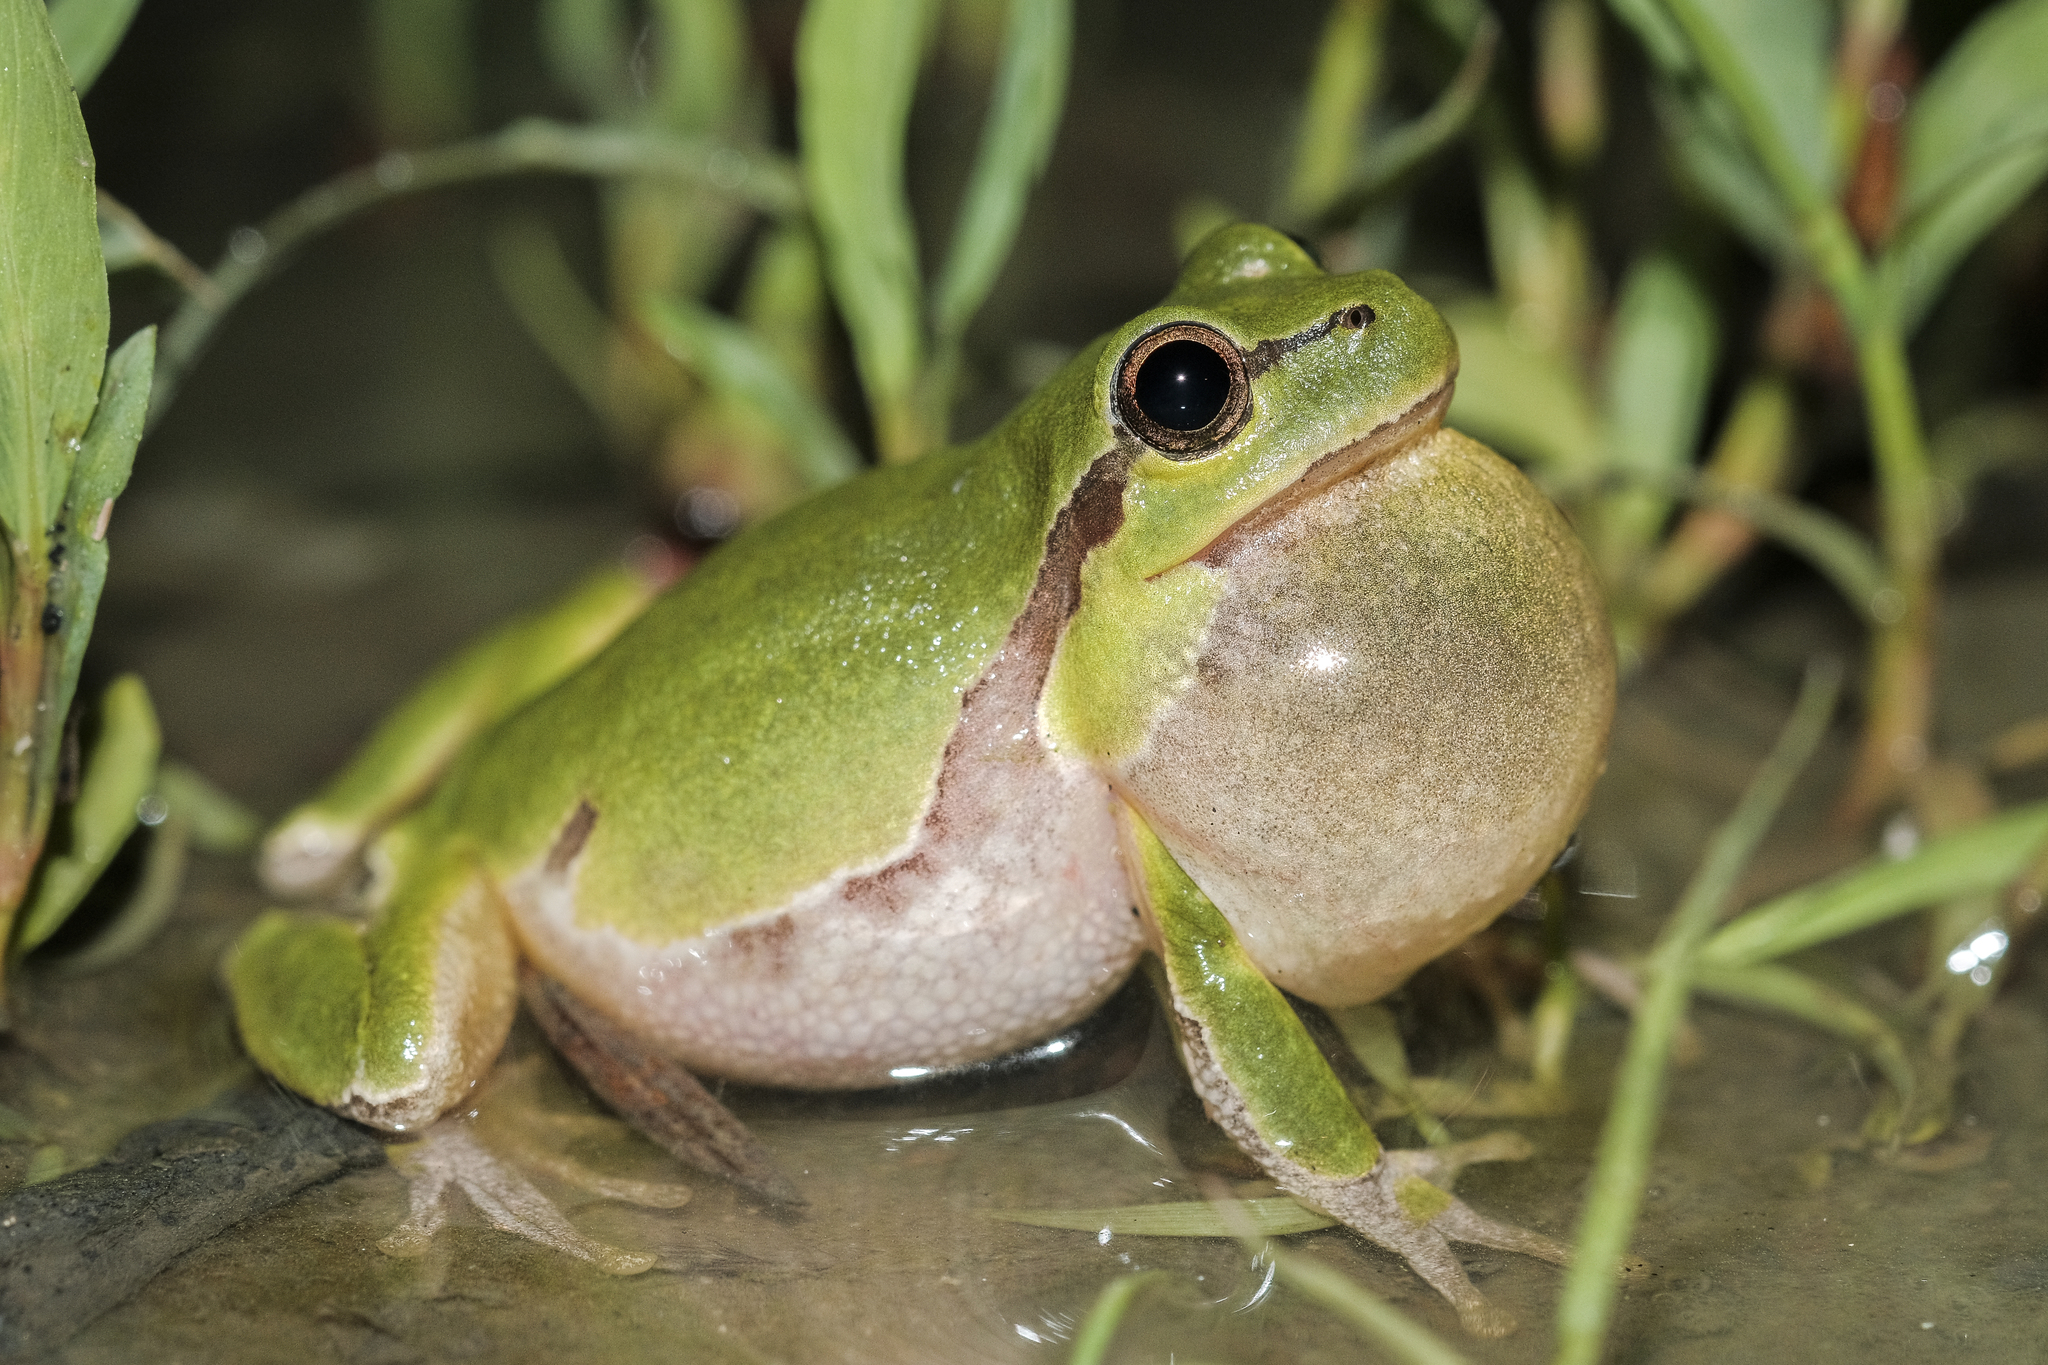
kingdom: Animalia
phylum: Chordata
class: Amphibia
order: Anura
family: Hylidae
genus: Hyla
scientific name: Hyla orientalis
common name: Caucasian treefrog
